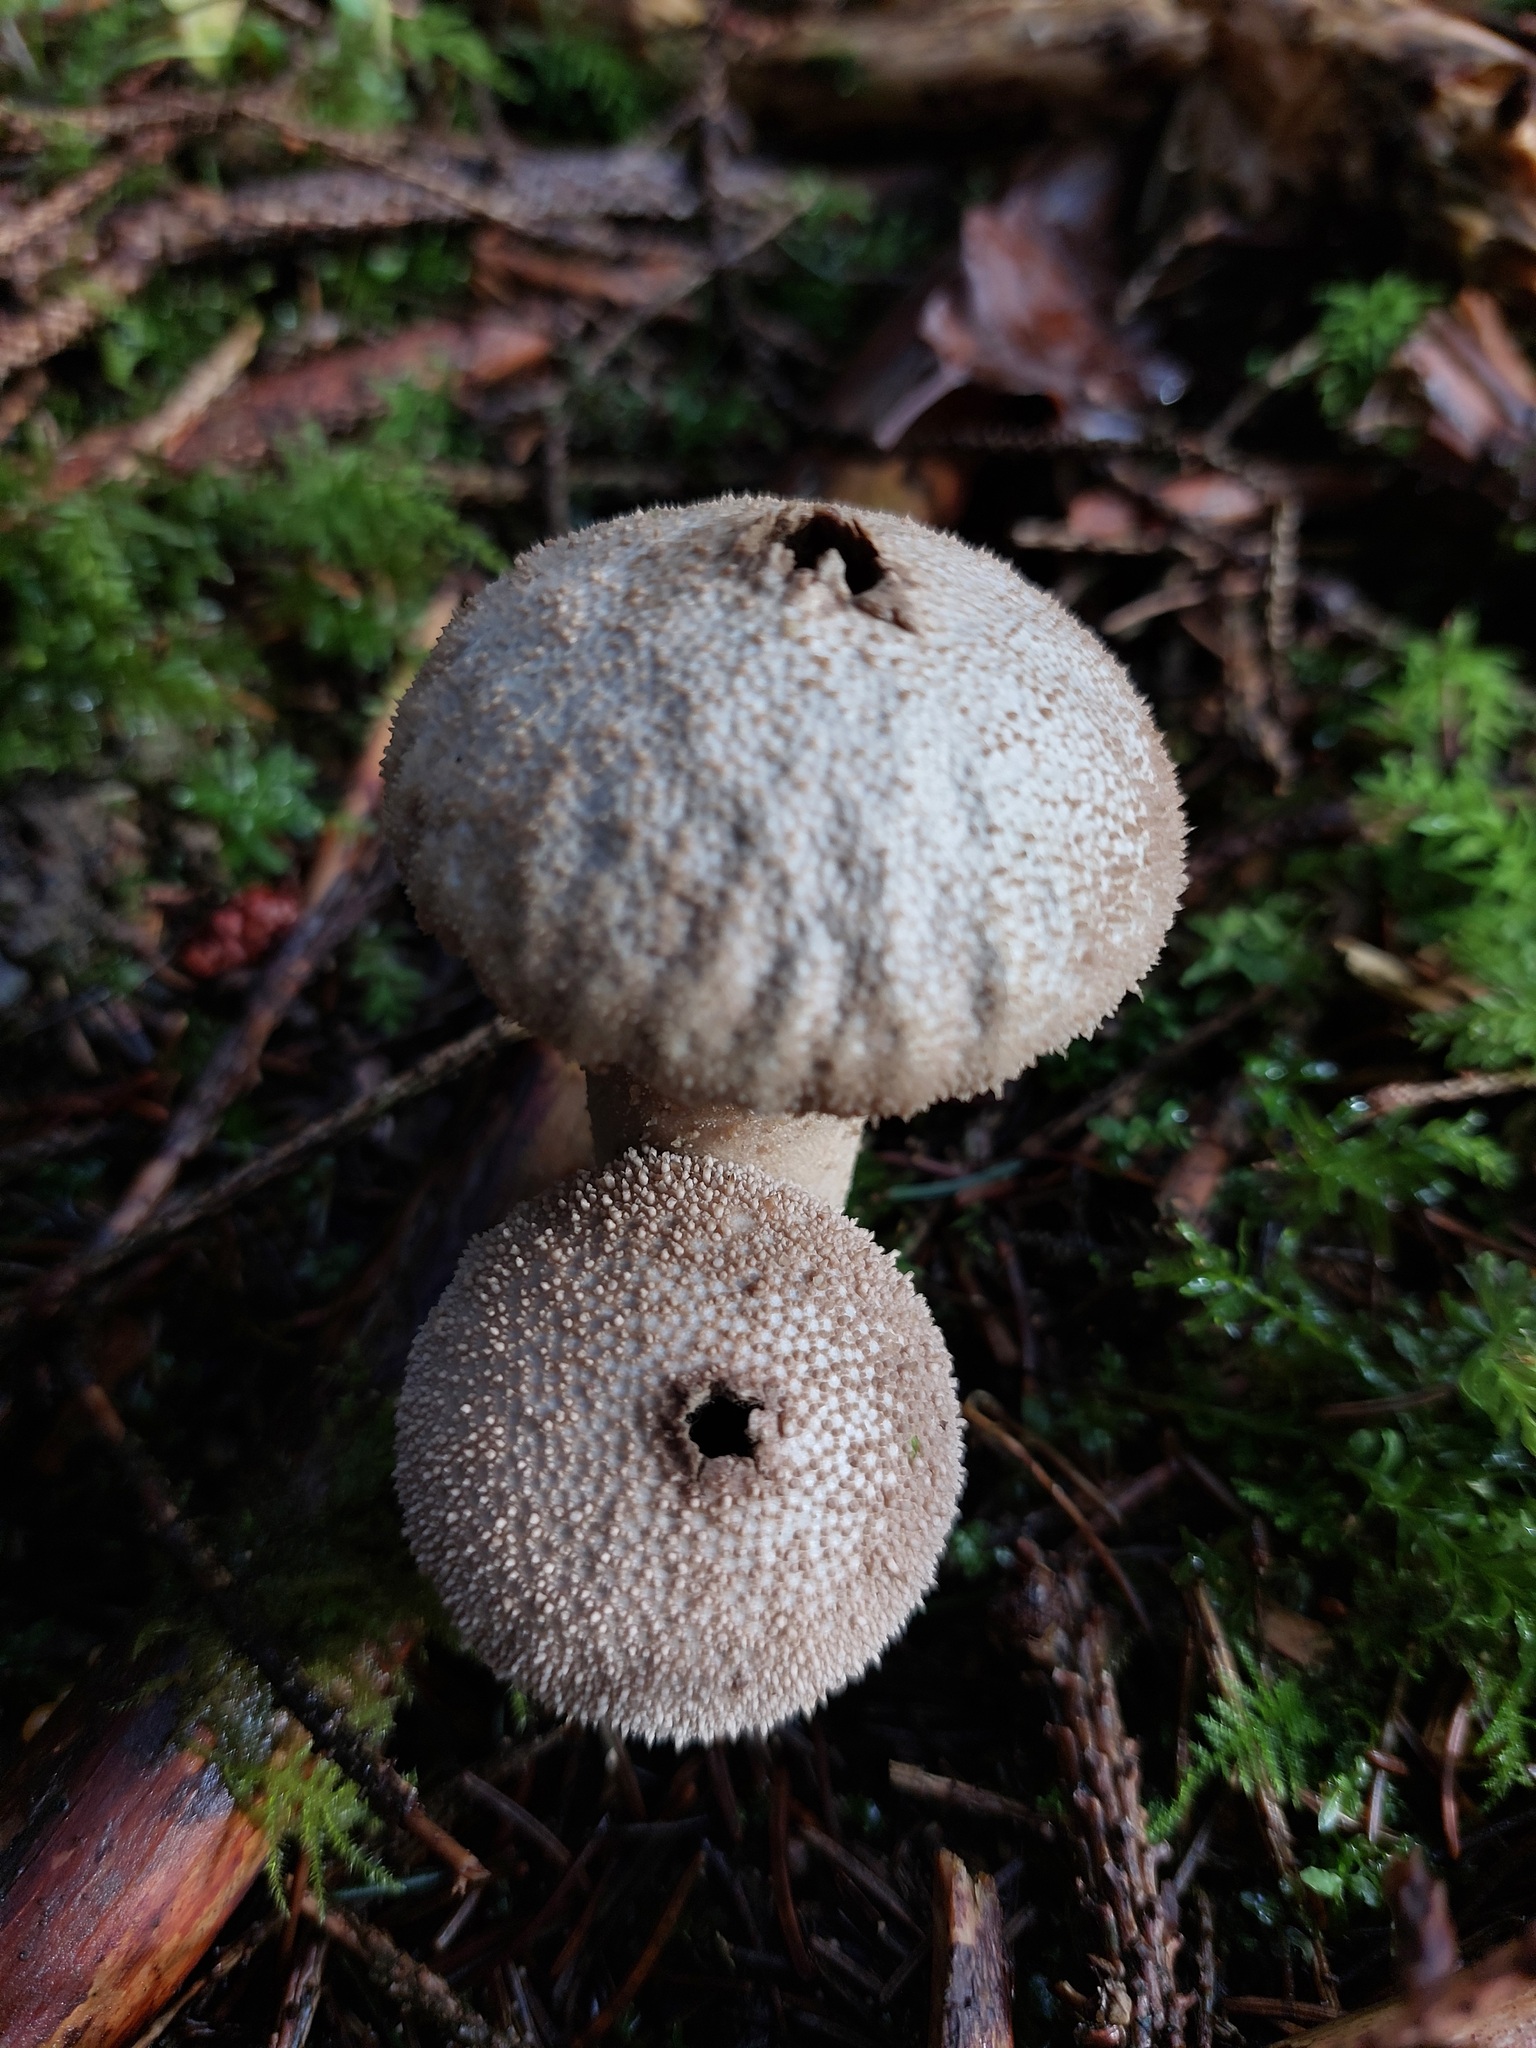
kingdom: Fungi
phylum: Basidiomycota
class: Agaricomycetes
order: Agaricales
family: Lycoperdaceae
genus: Lycoperdon
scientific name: Lycoperdon perlatum
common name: Common puffball
